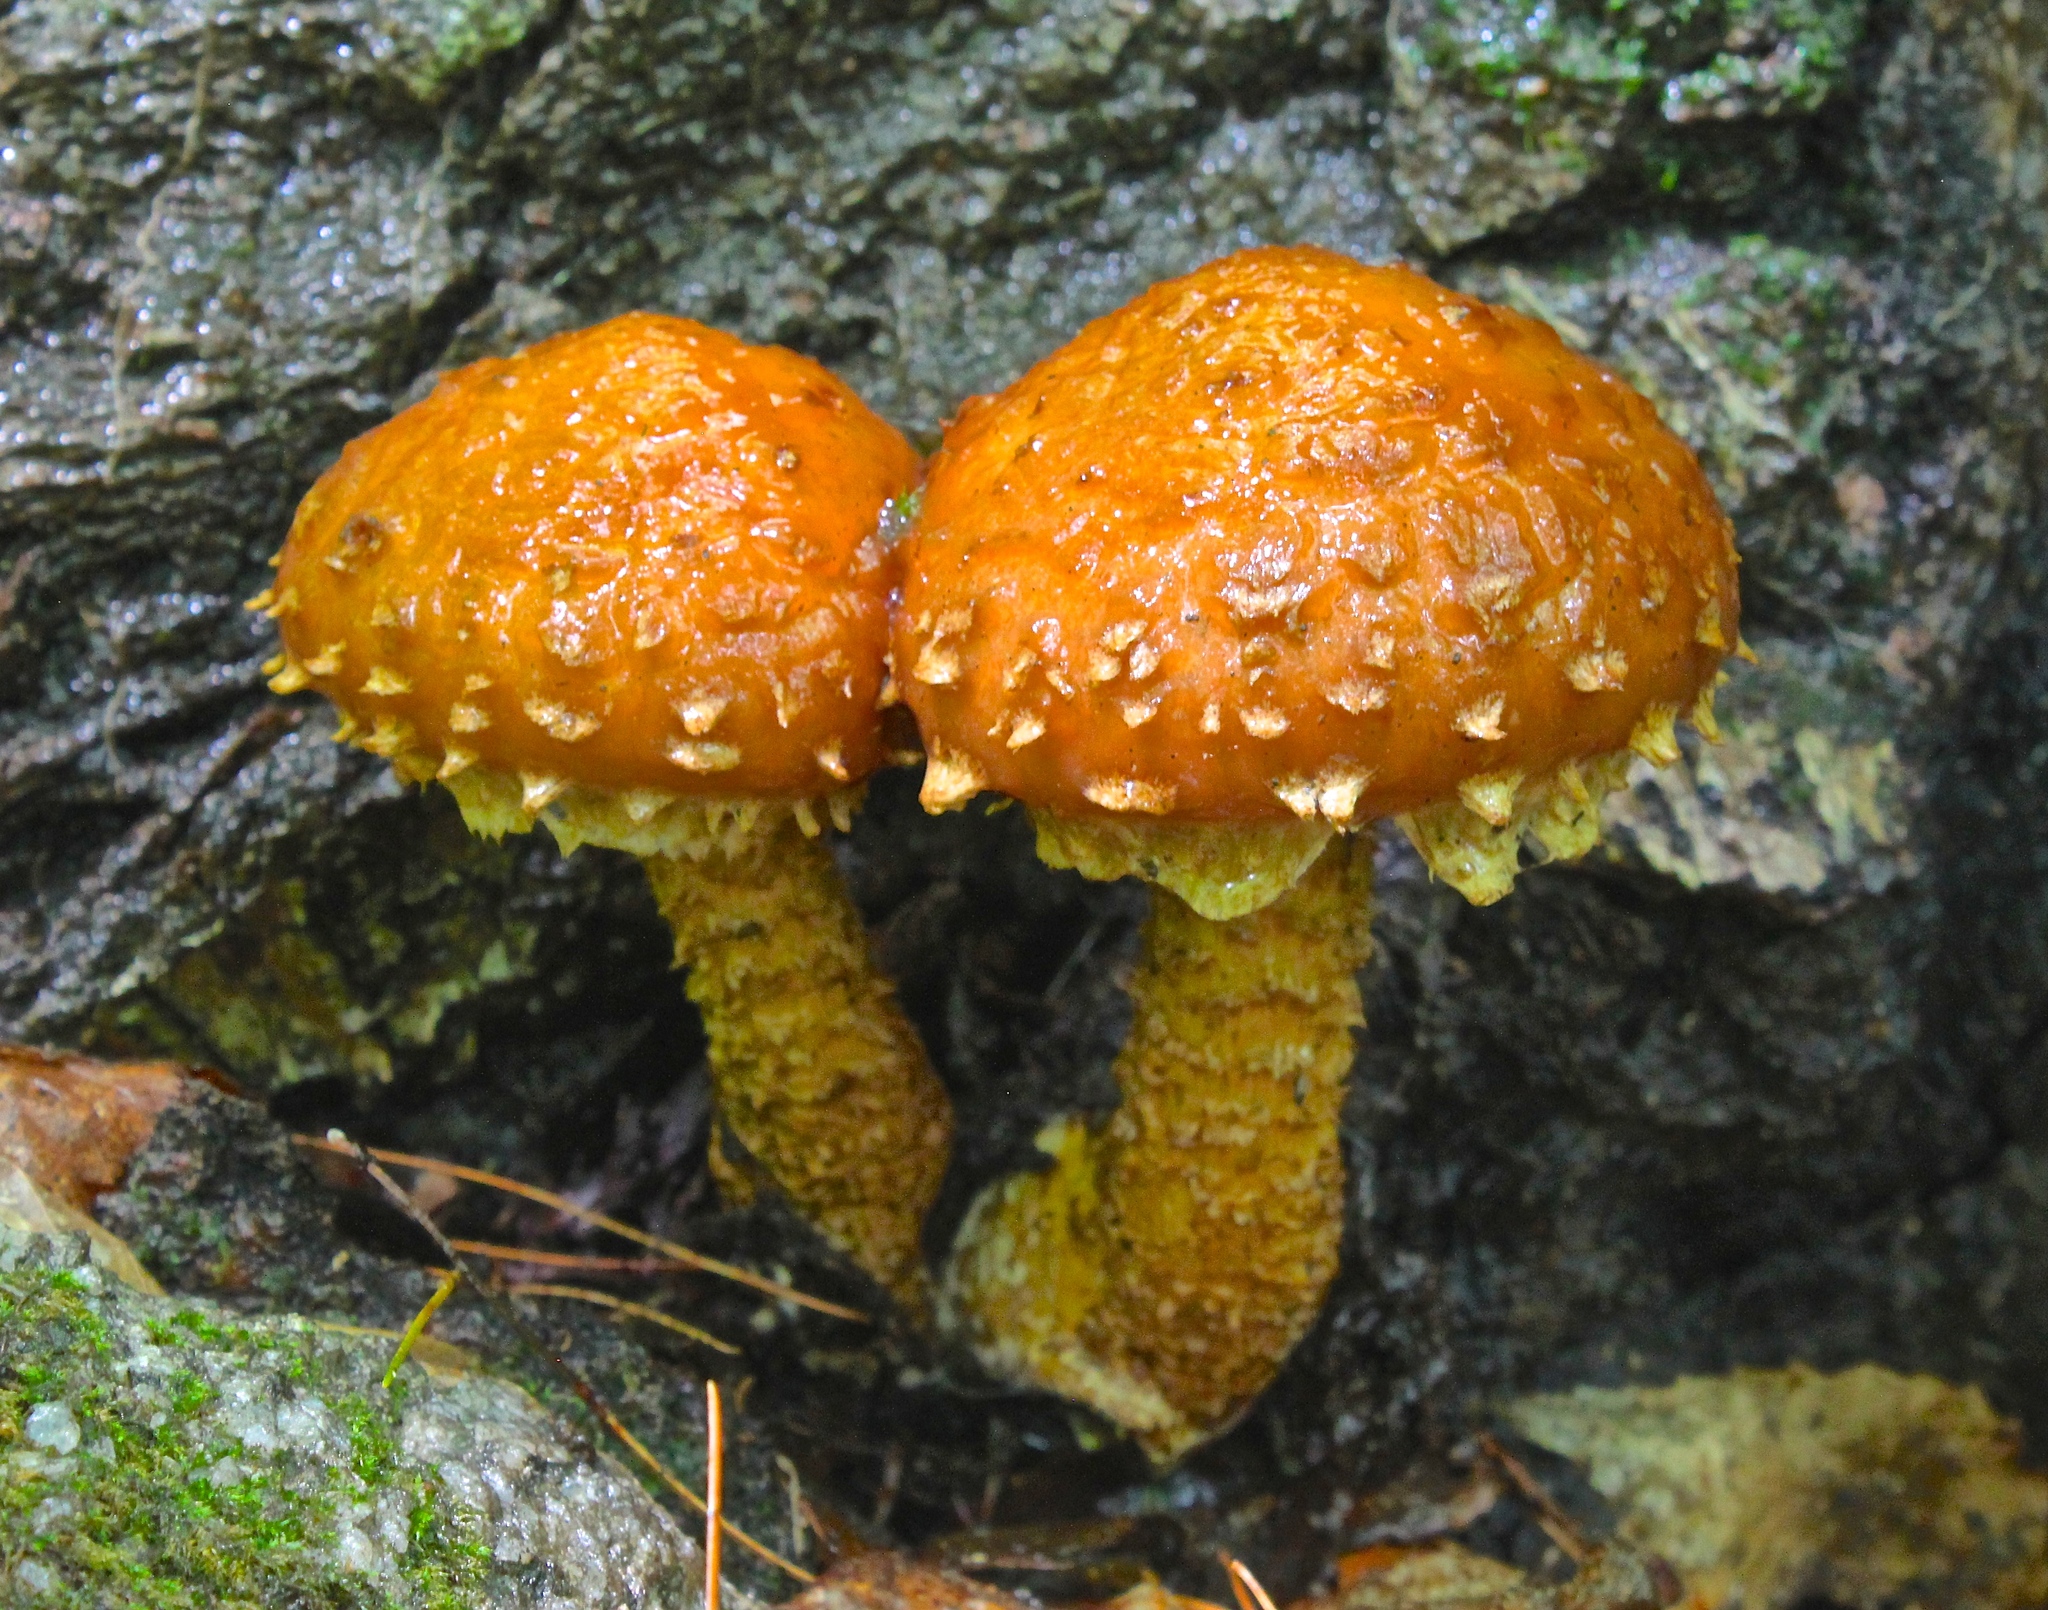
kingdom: Fungi
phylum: Basidiomycota
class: Agaricomycetes
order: Agaricales
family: Tubariaceae
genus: Hemistropharia
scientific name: Hemistropharia albocrenulata
